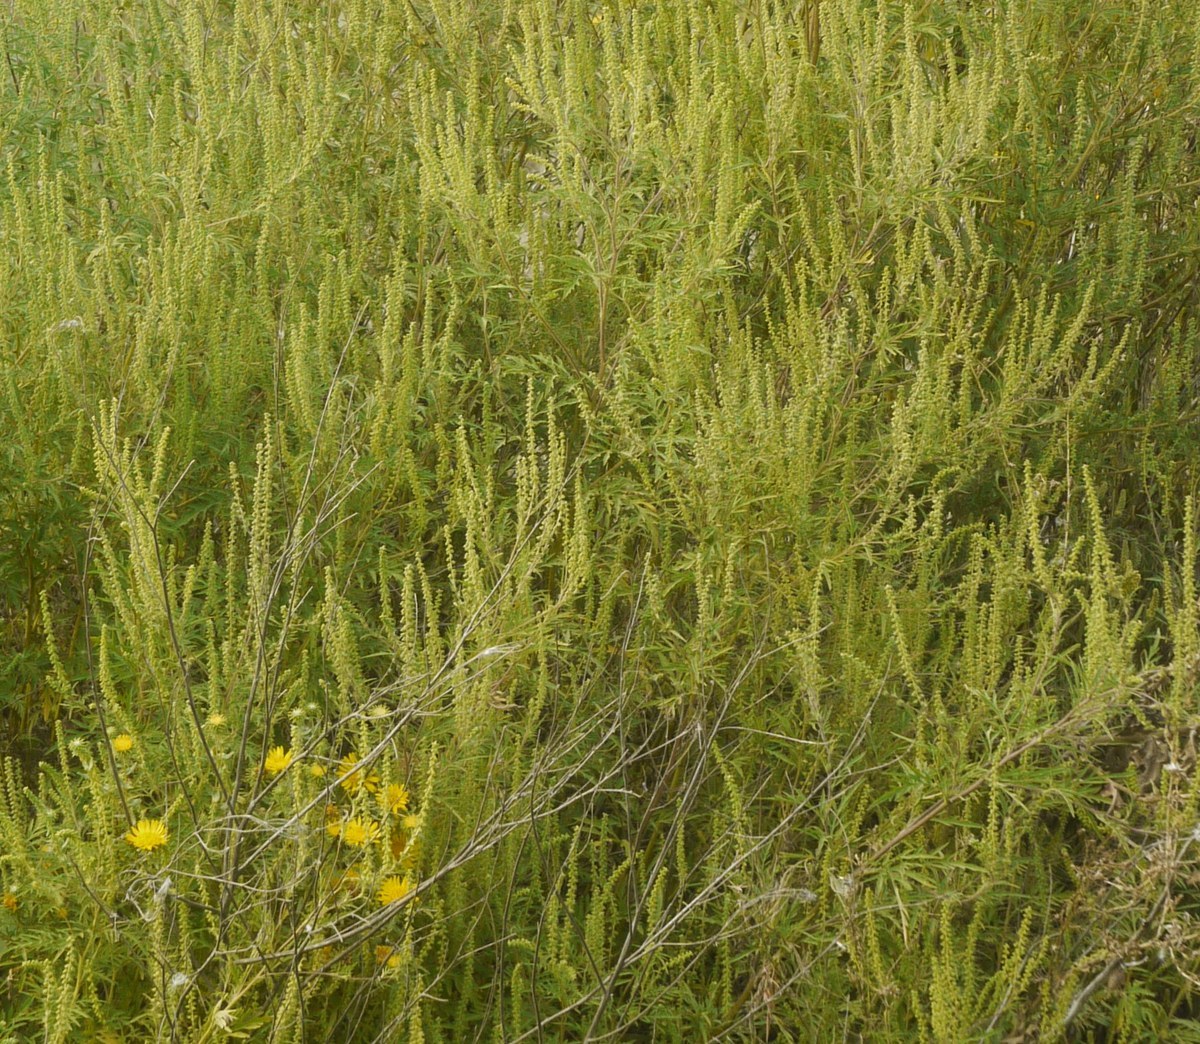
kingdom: Plantae
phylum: Tracheophyta
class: Magnoliopsida
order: Asterales
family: Asteraceae
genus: Ambrosia
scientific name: Ambrosia artemisiifolia
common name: Annual ragweed
